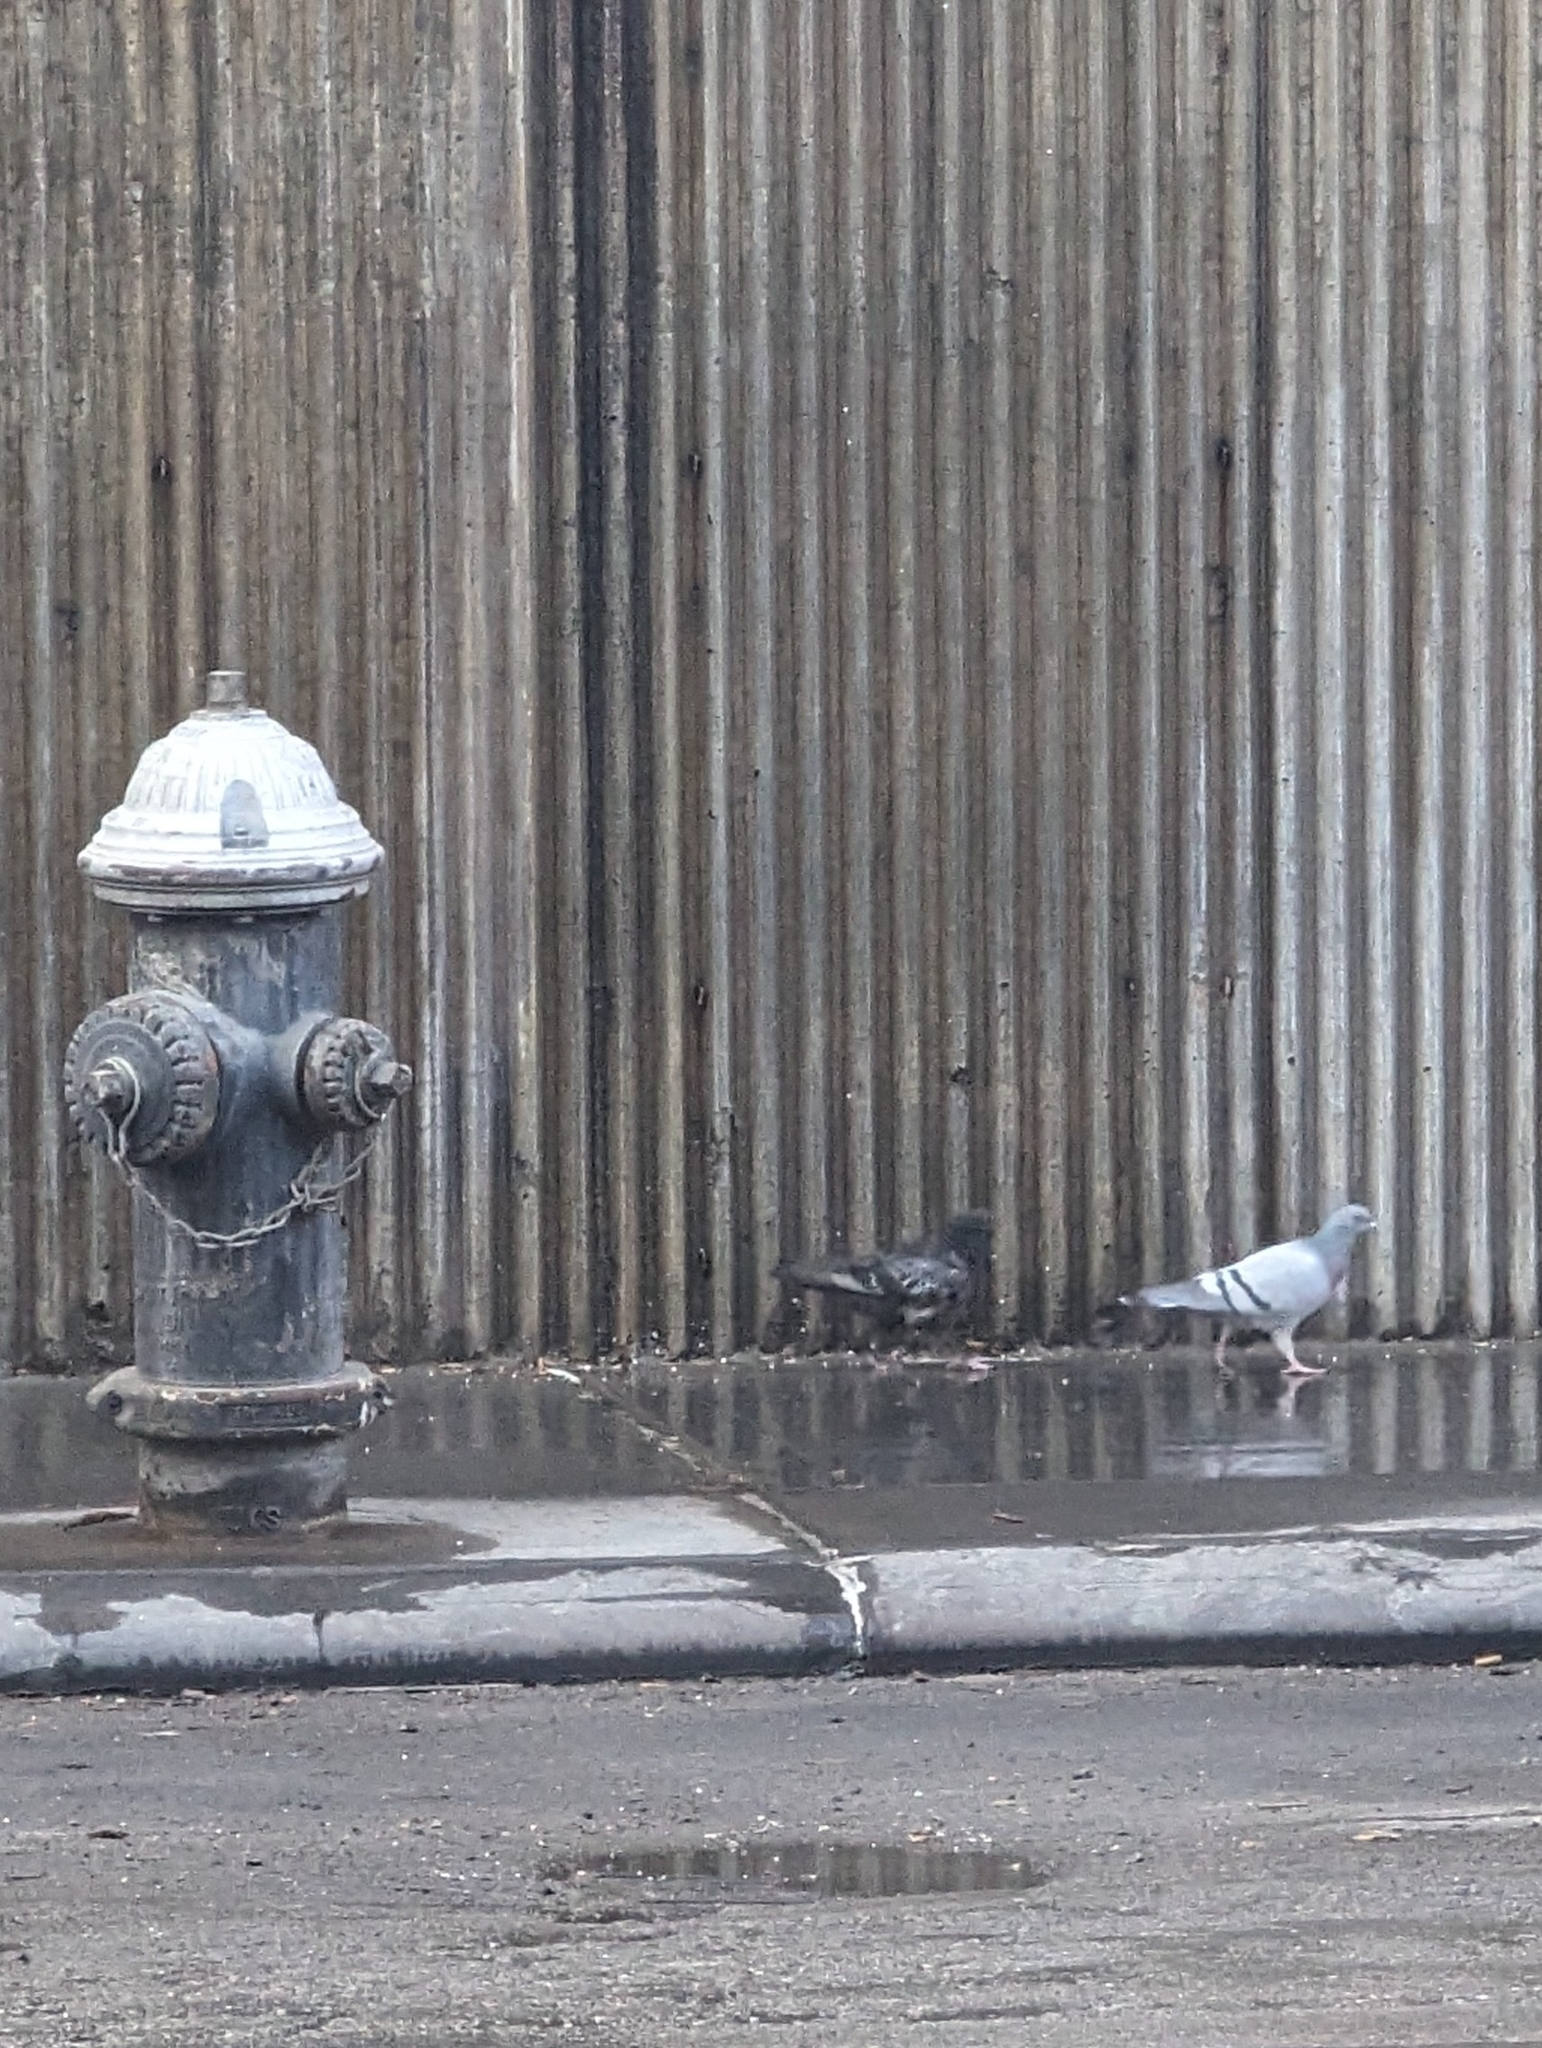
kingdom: Animalia
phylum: Chordata
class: Aves
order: Columbiformes
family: Columbidae
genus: Columba
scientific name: Columba livia
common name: Rock pigeon
